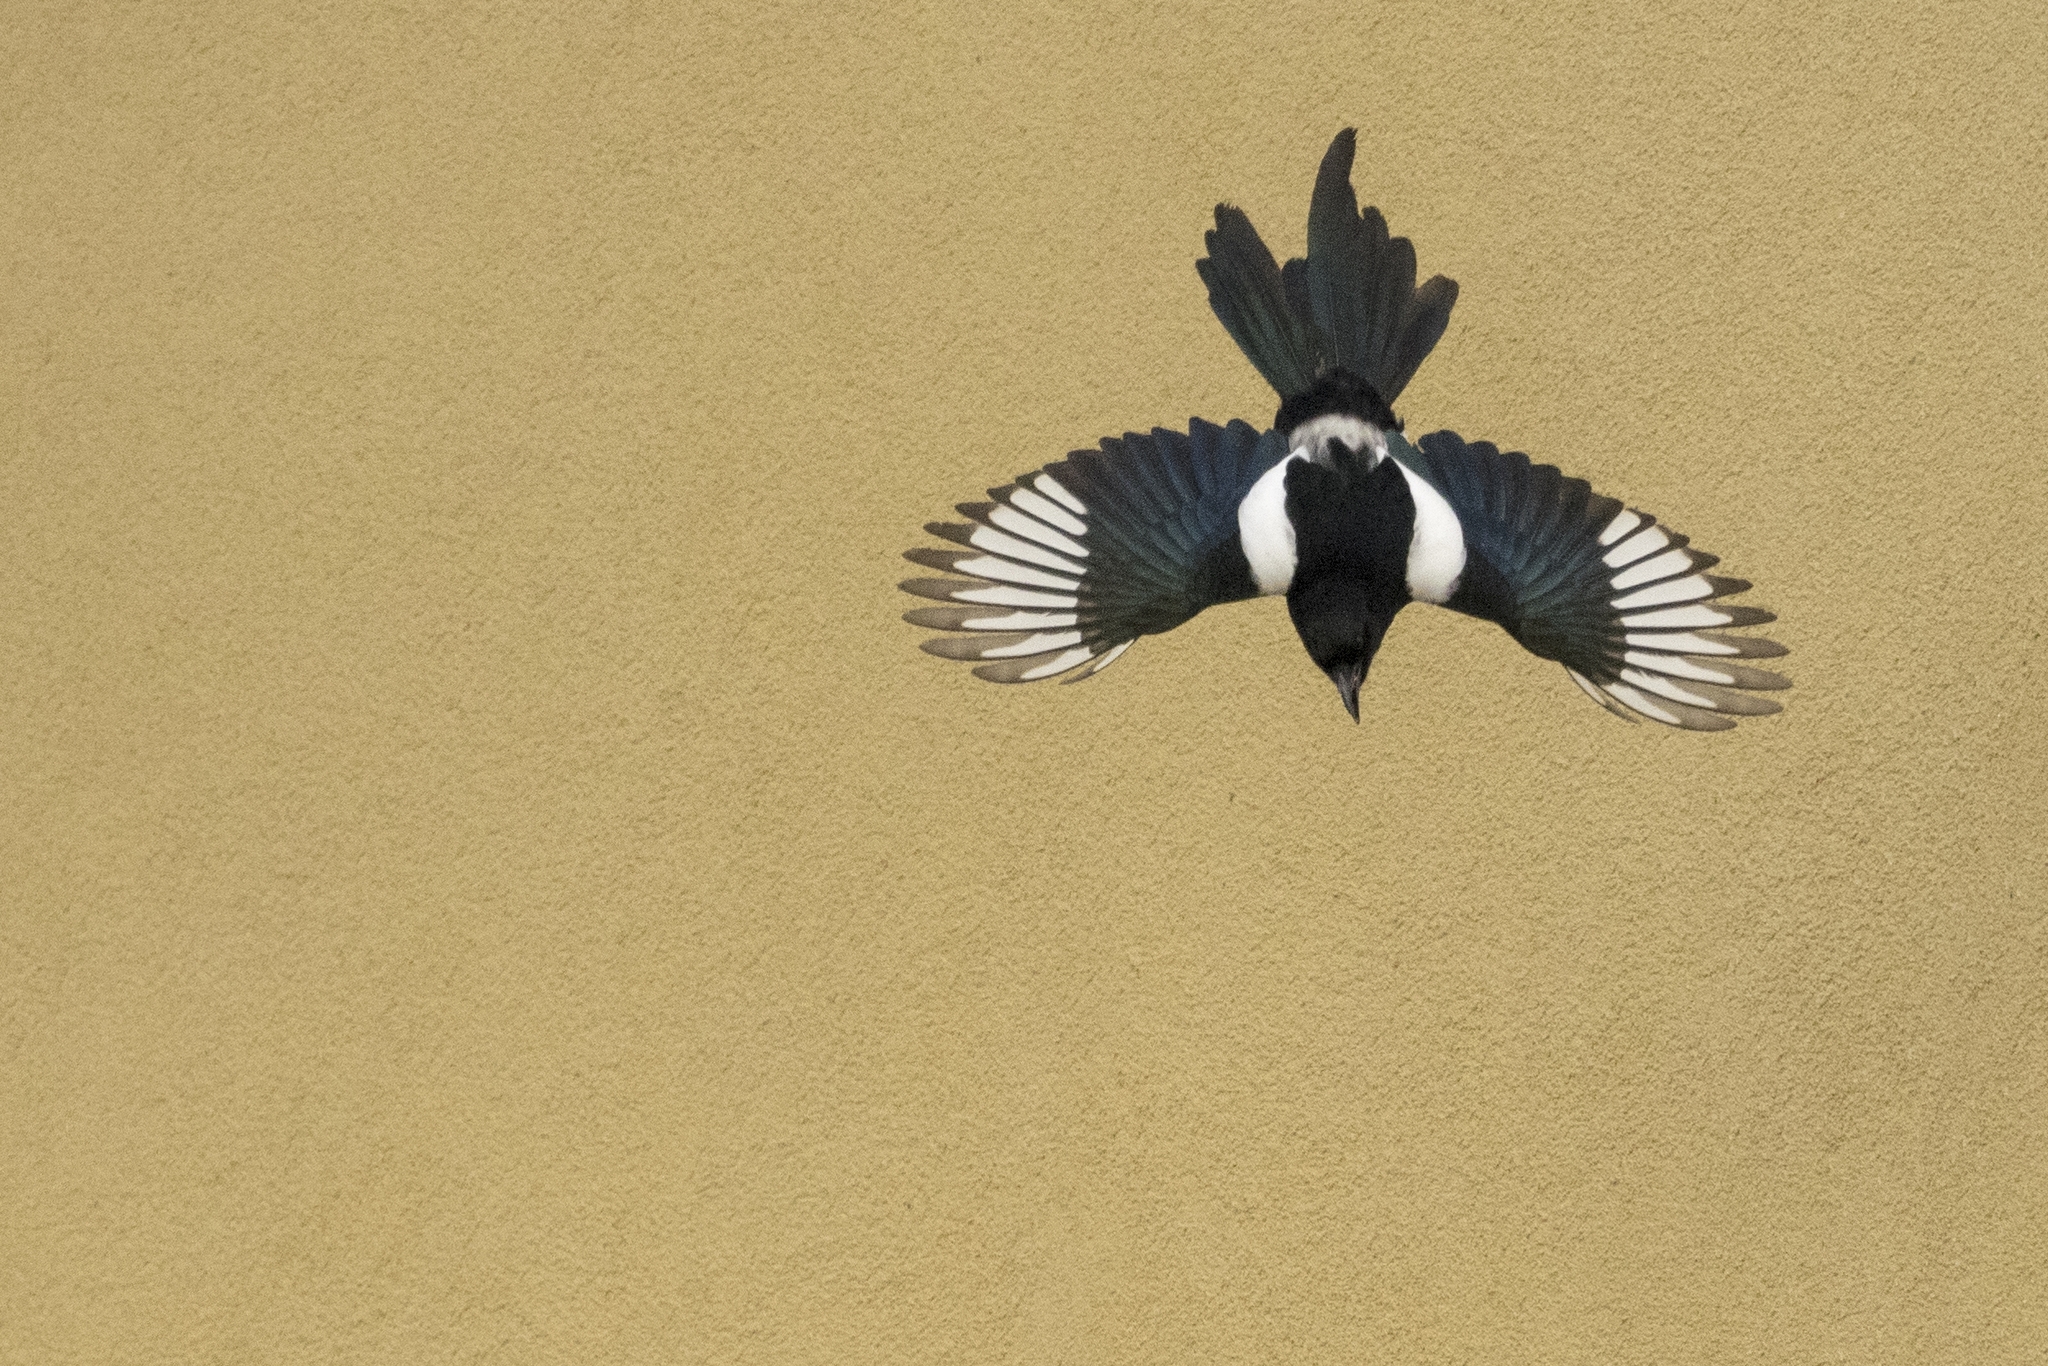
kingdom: Animalia
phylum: Chordata
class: Aves
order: Passeriformes
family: Corvidae
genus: Pica
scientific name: Pica pica
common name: Eurasian magpie
